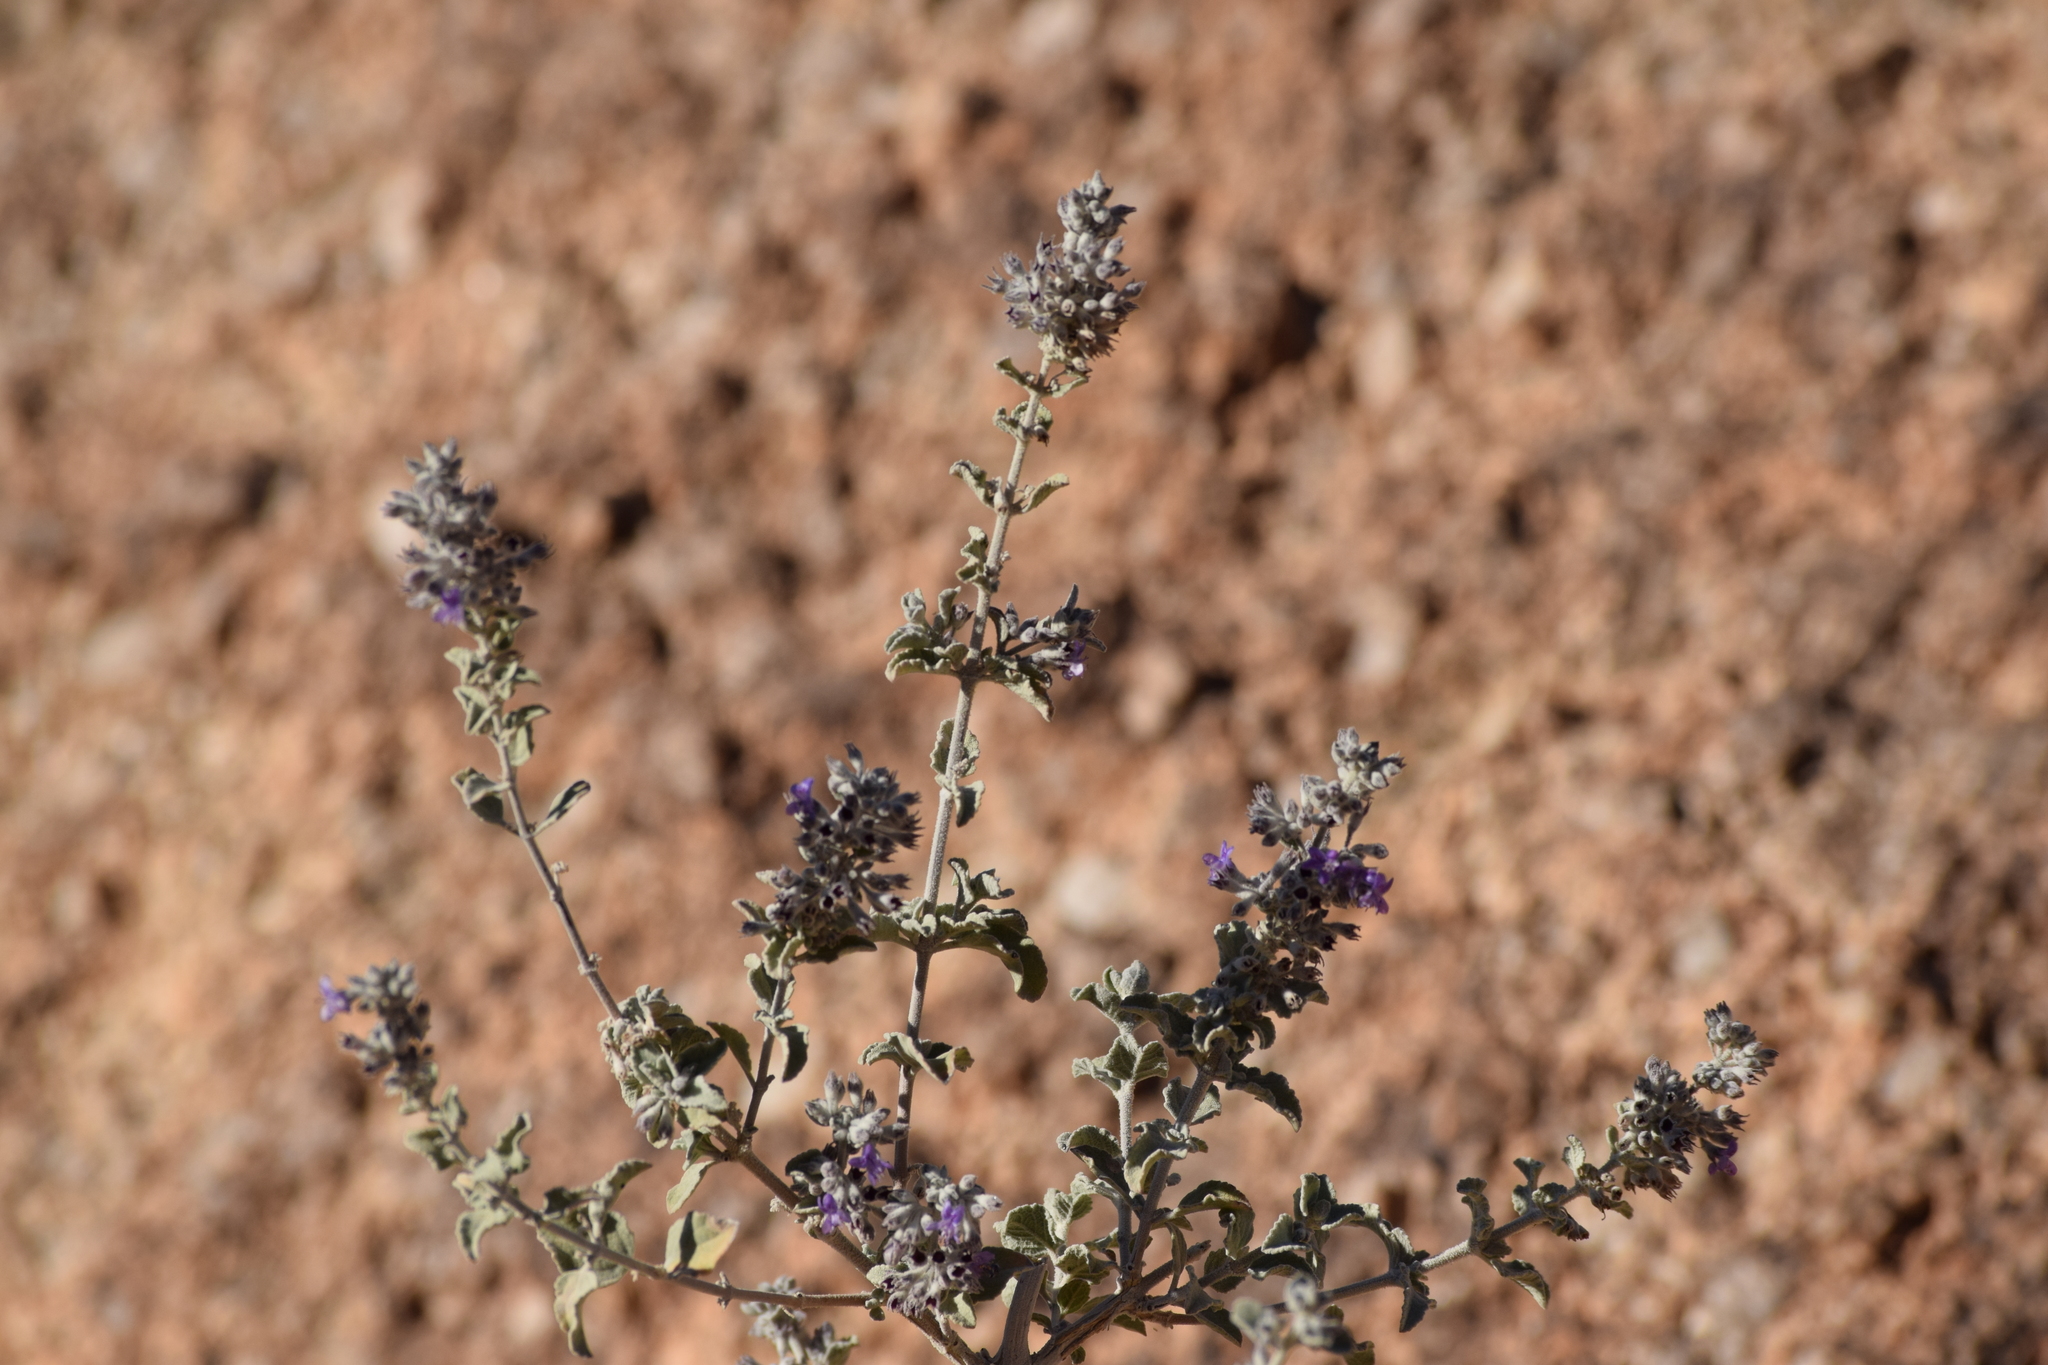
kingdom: Plantae
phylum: Tracheophyta
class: Magnoliopsida
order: Lamiales
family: Lamiaceae
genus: Condea
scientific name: Condea emoryi
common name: Chia
